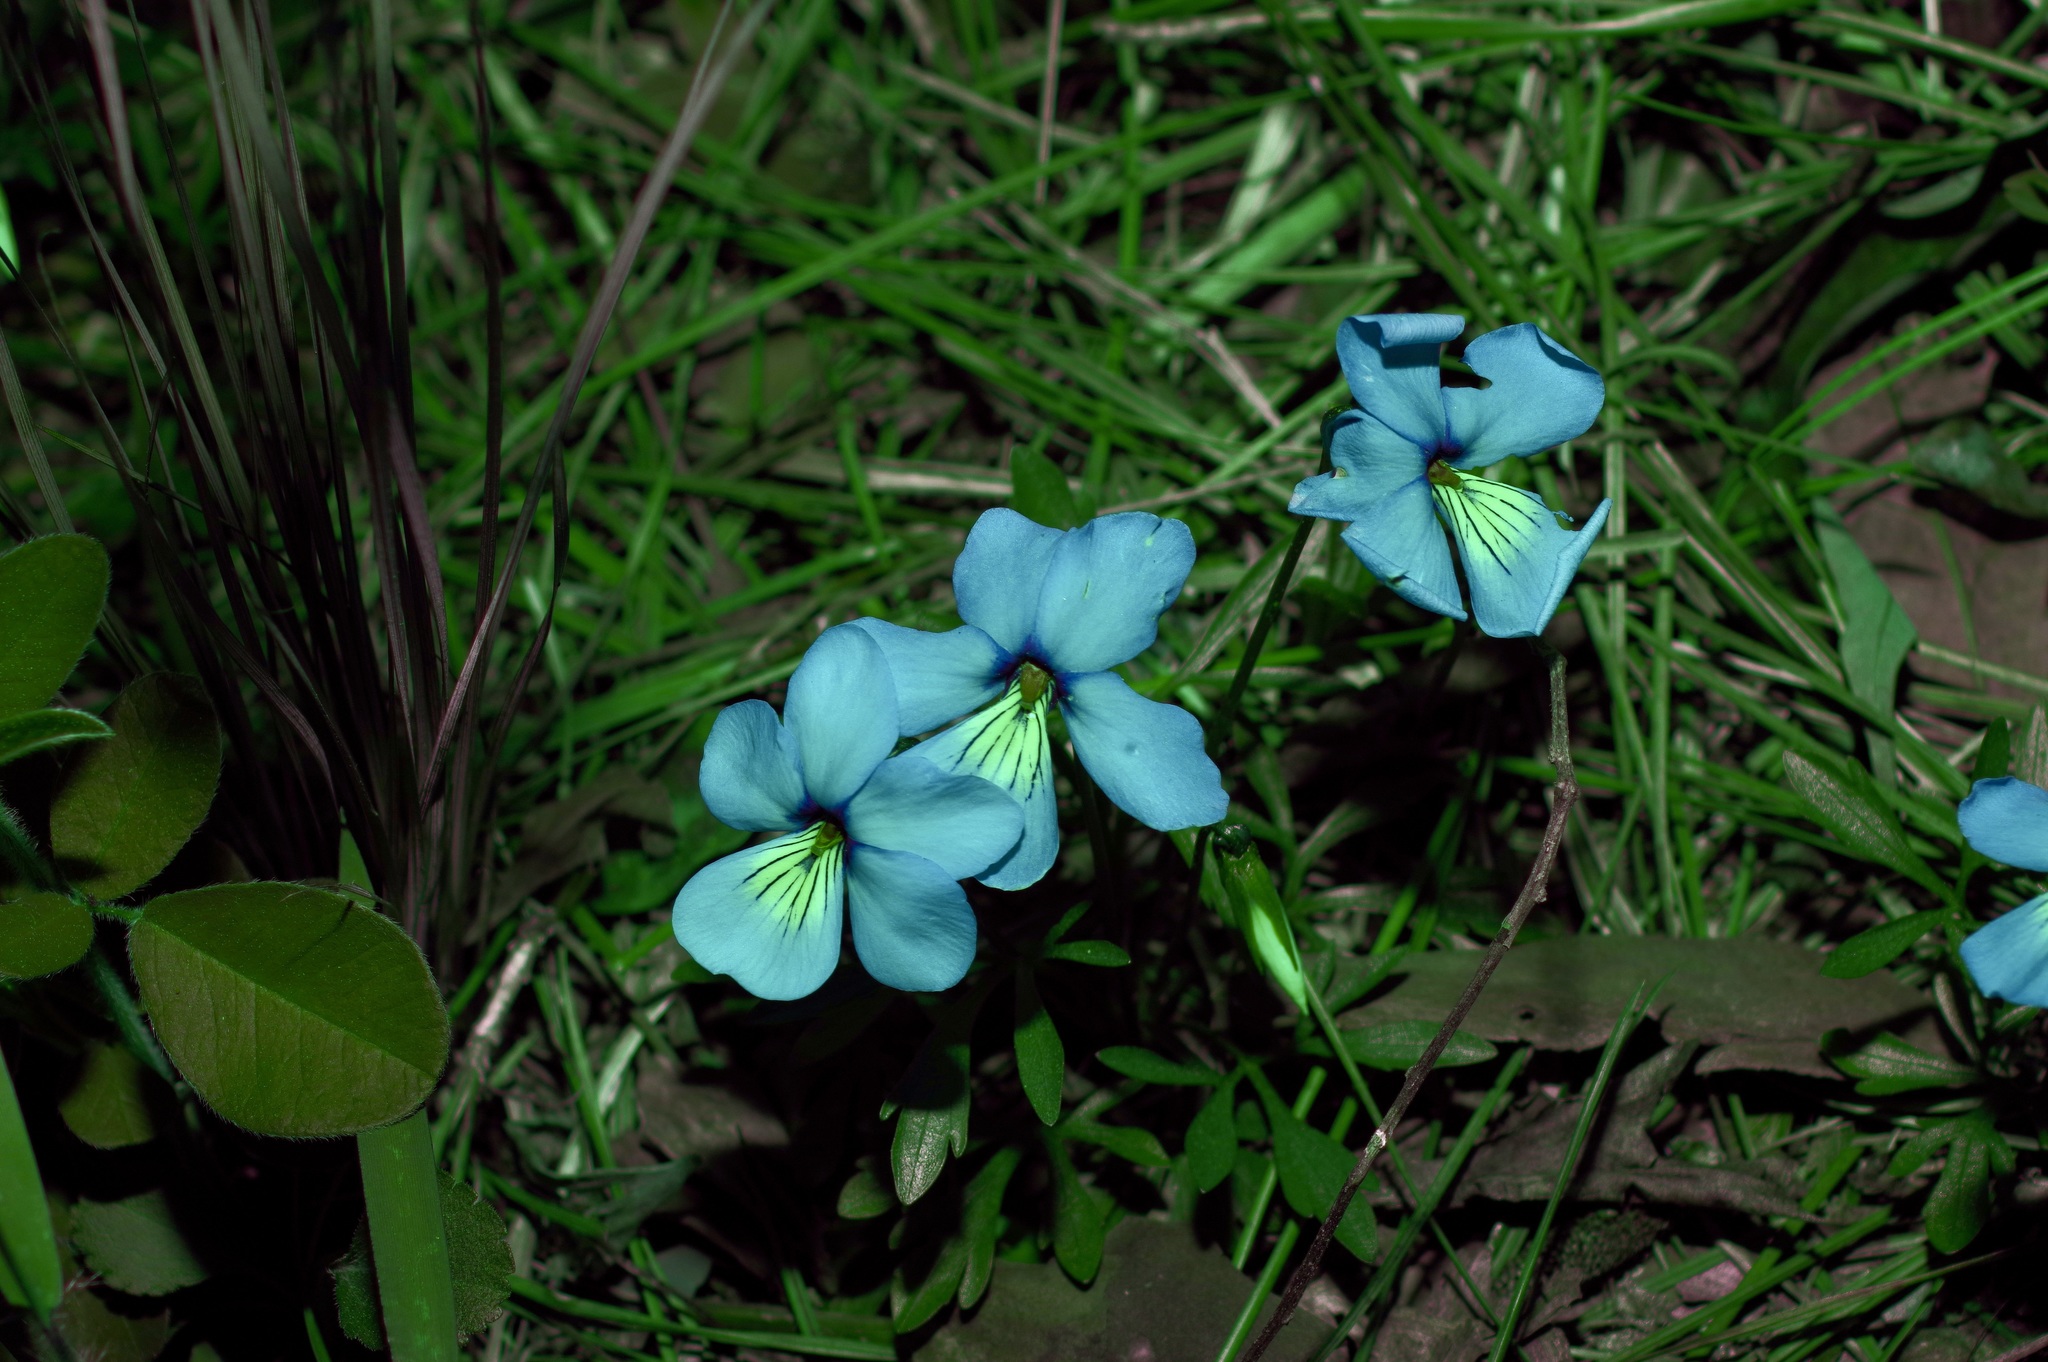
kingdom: Plantae
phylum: Tracheophyta
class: Magnoliopsida
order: Malpighiales
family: Violaceae
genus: Viola
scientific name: Viola pedata
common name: Pansy violet
